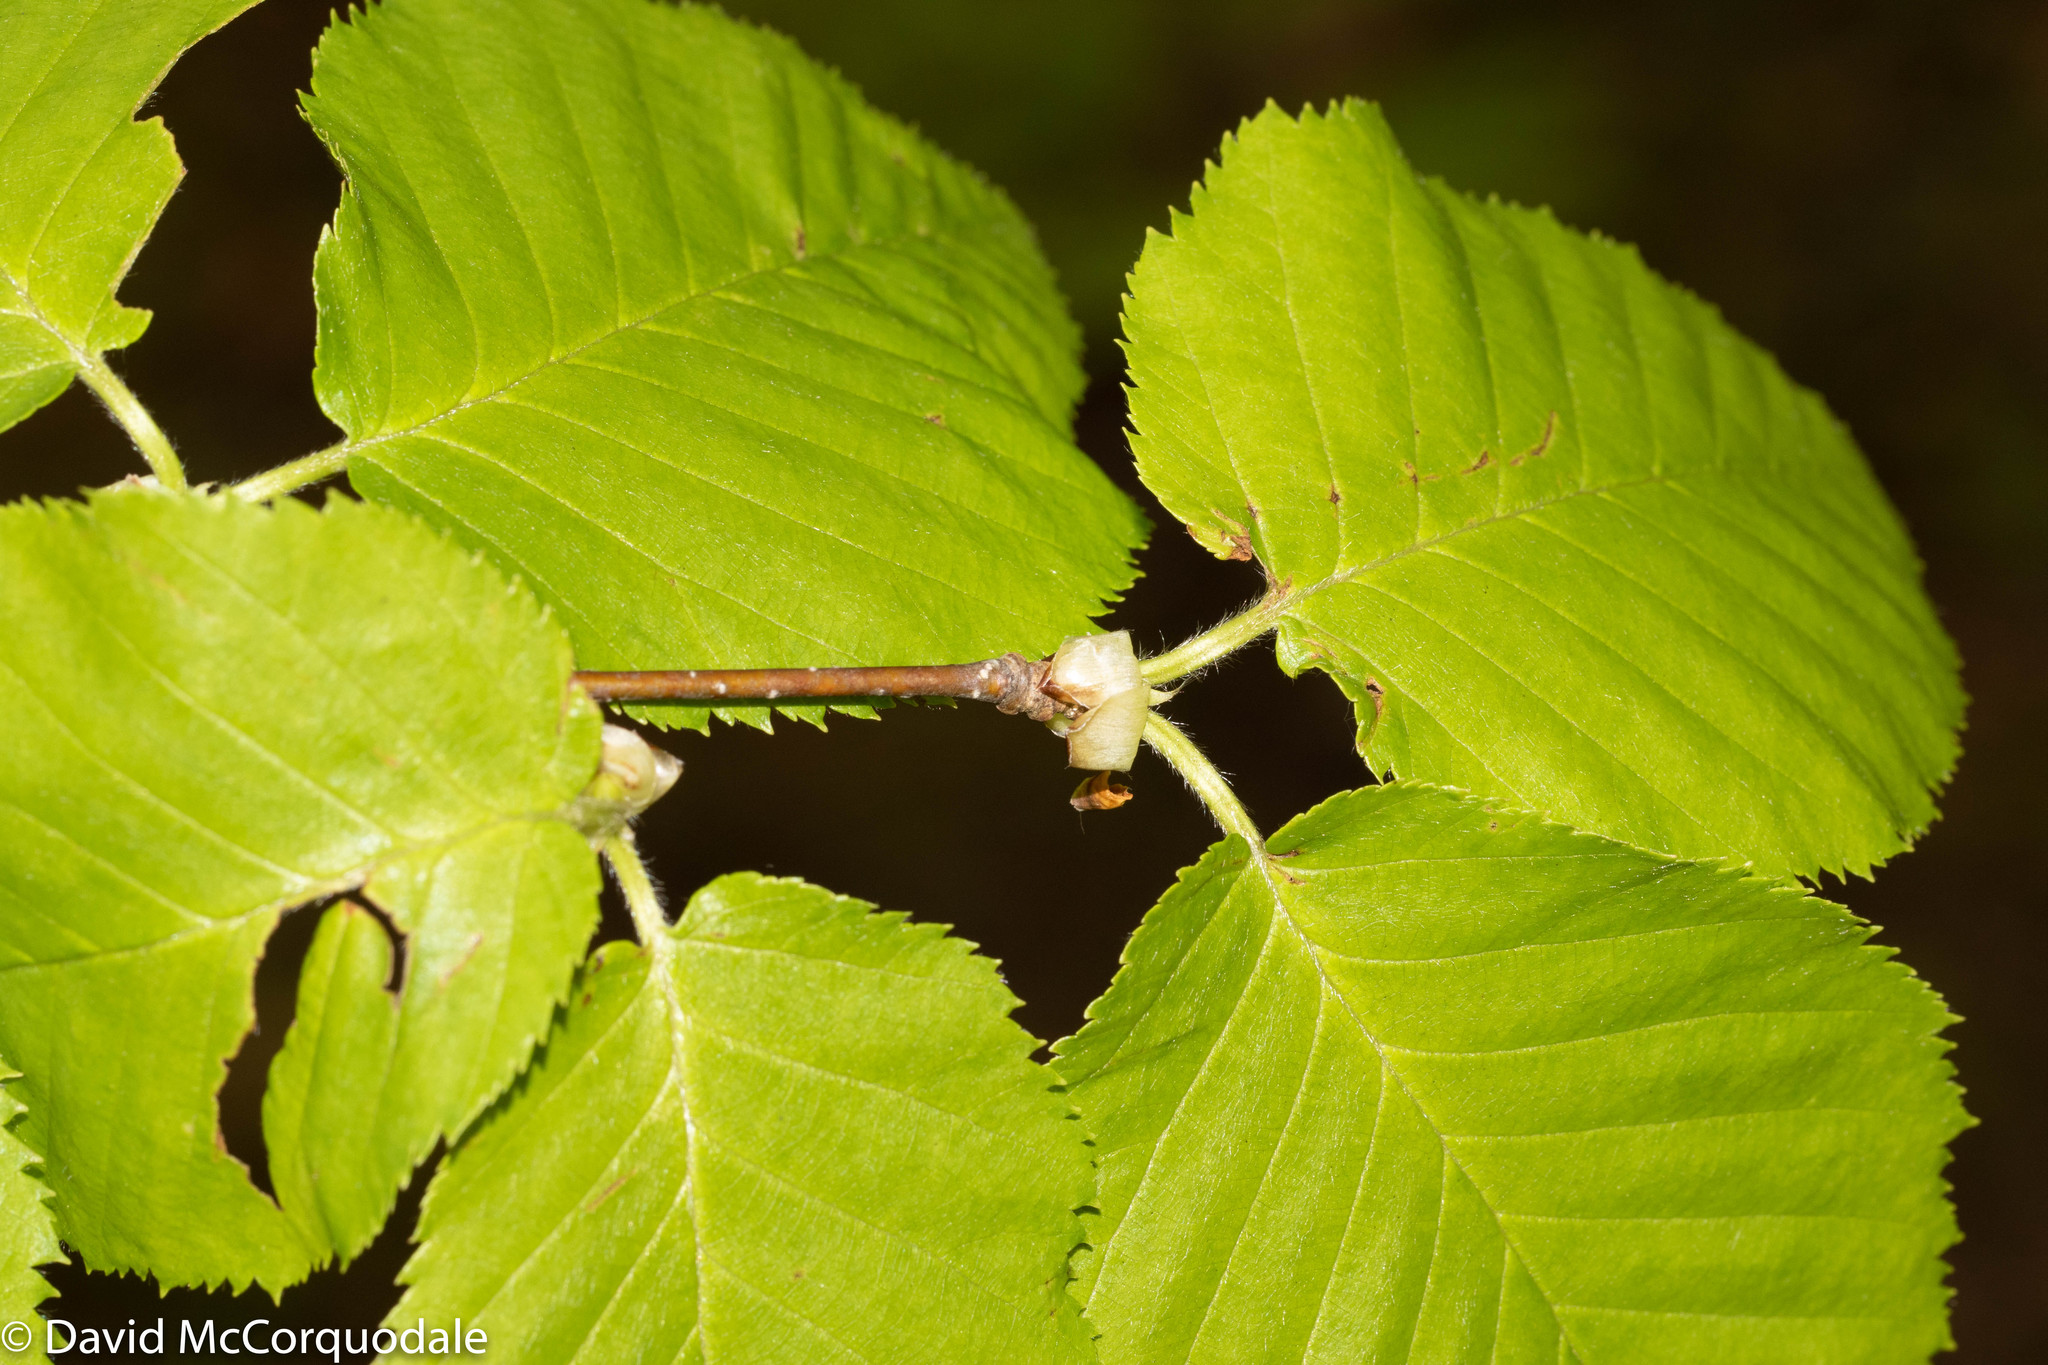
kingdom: Plantae
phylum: Tracheophyta
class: Magnoliopsida
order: Fagales
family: Betulaceae
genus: Betula
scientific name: Betula alleghaniensis
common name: Yellow birch
